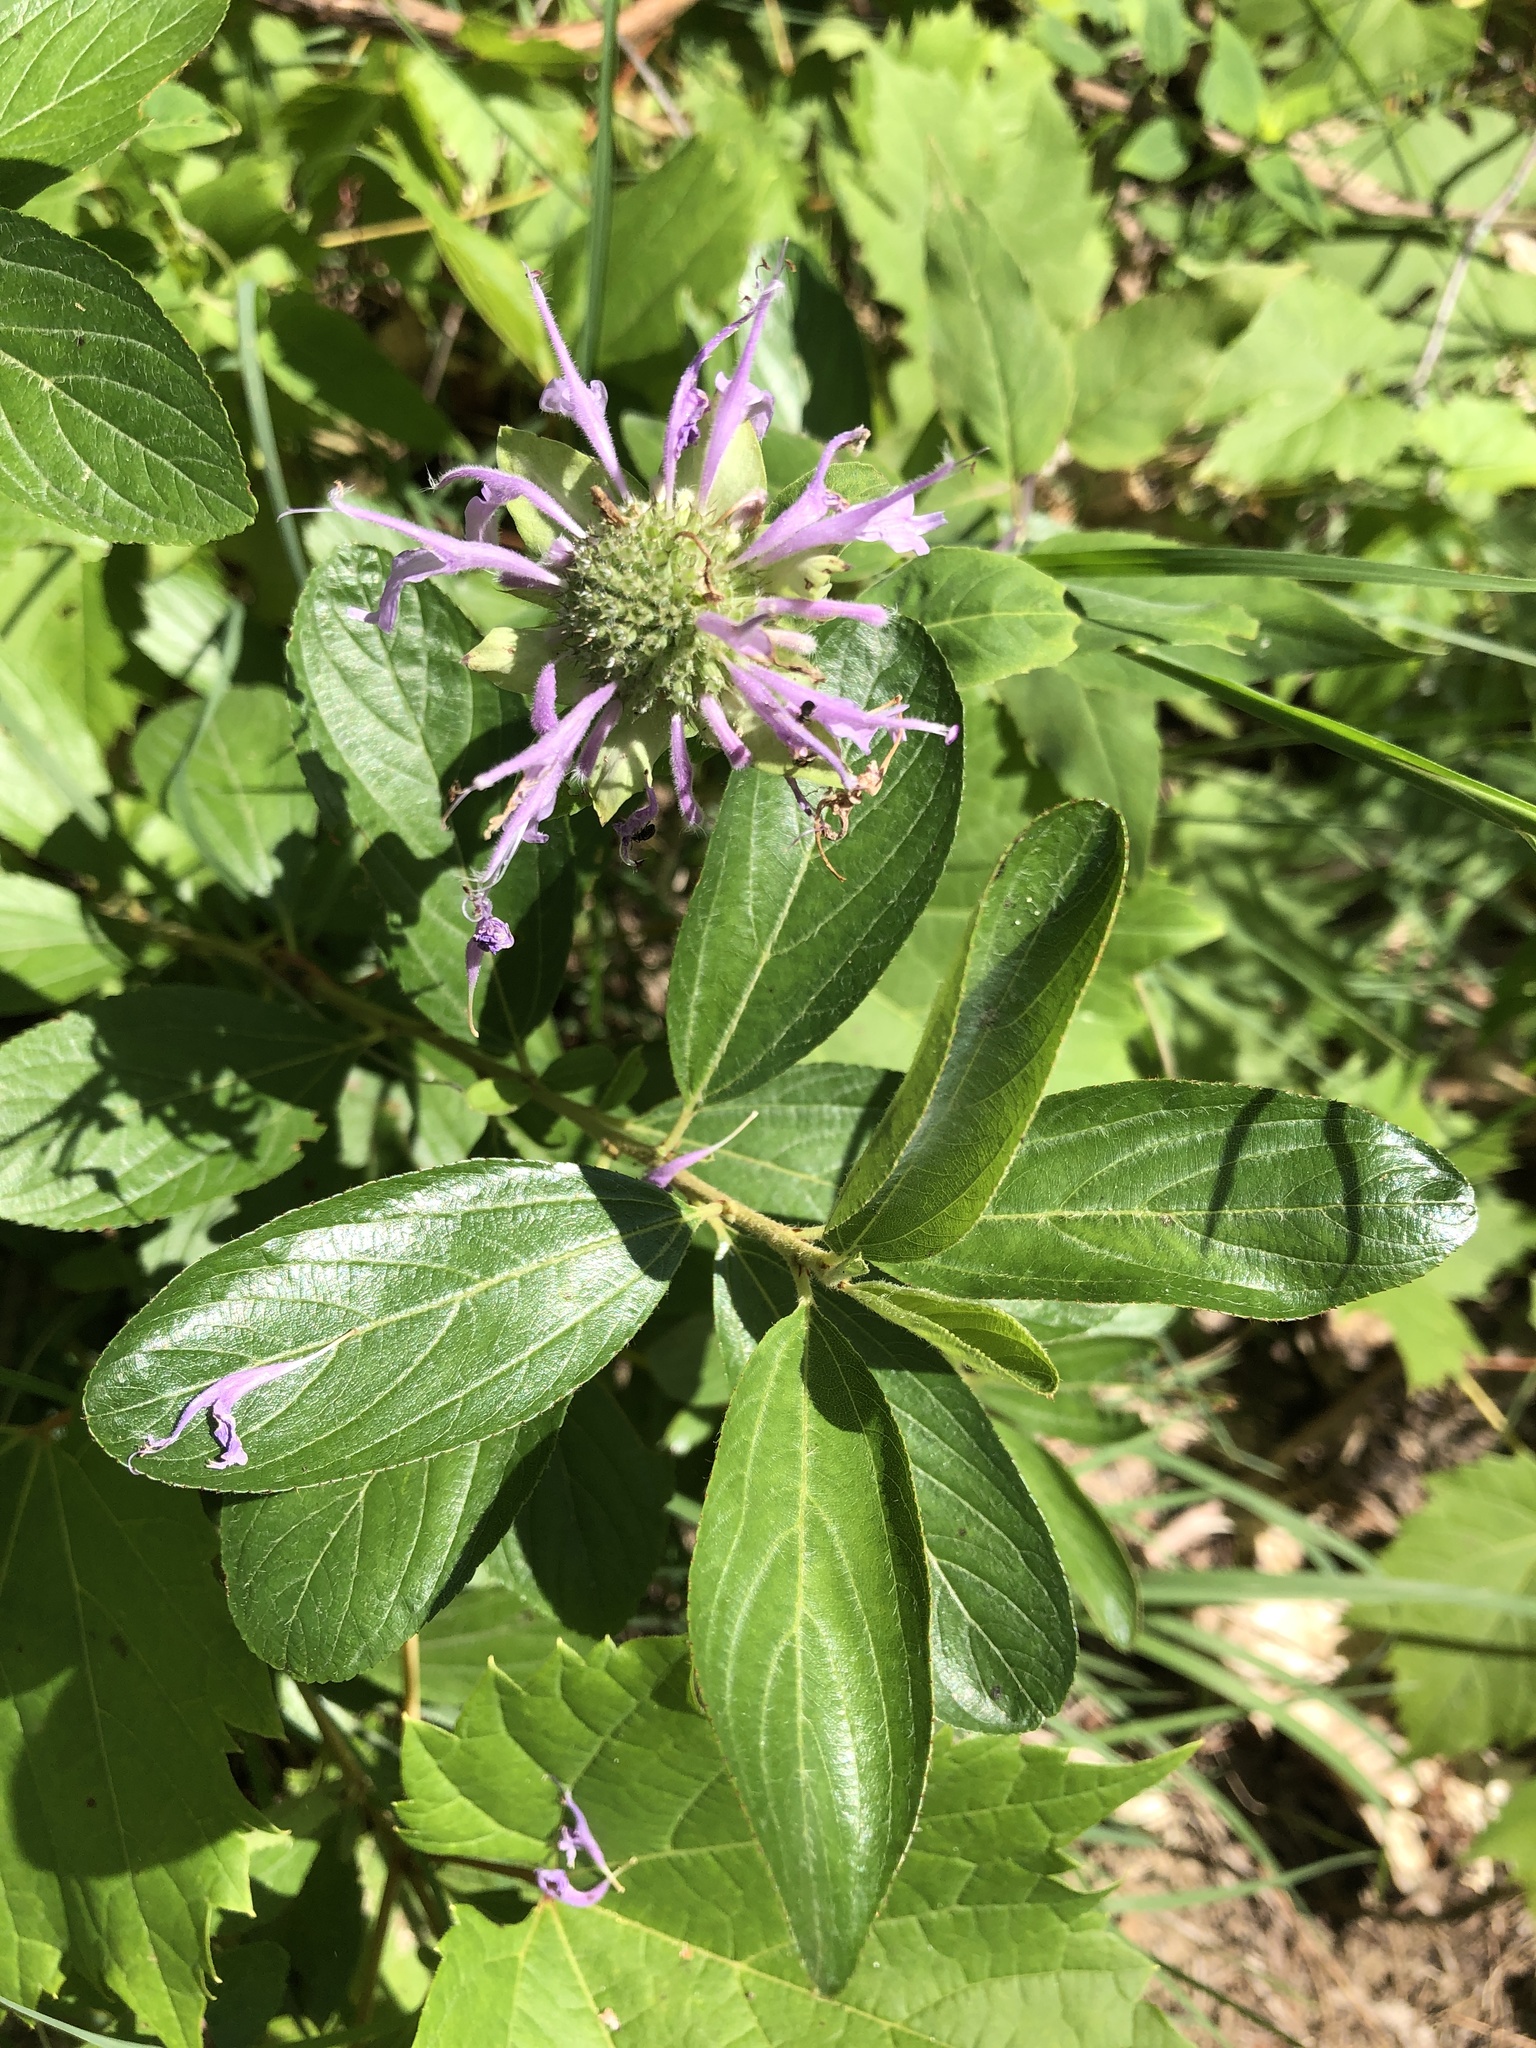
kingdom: Plantae
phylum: Tracheophyta
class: Magnoliopsida
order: Lamiales
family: Lamiaceae
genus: Monarda
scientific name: Monarda fistulosa
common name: Purple beebalm
